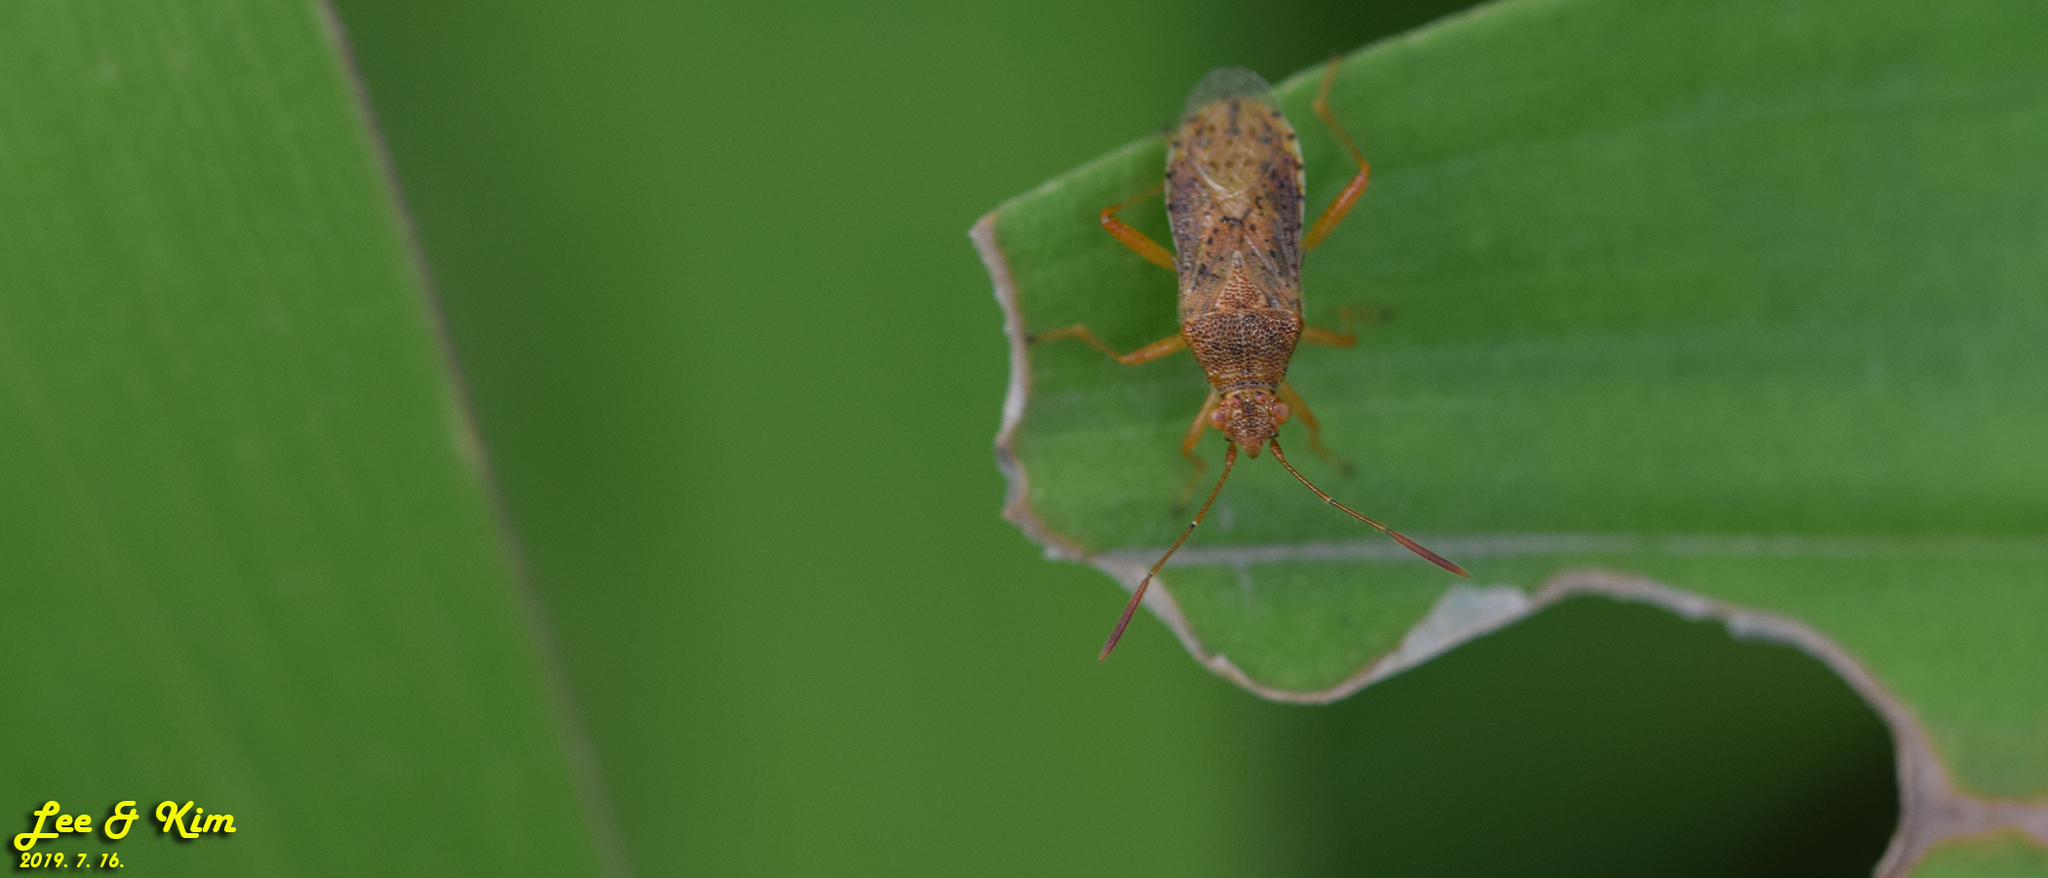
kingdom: Animalia
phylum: Arthropoda
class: Insecta
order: Hemiptera
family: Rhopalidae
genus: Rhopalus
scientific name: Rhopalus maculatus
